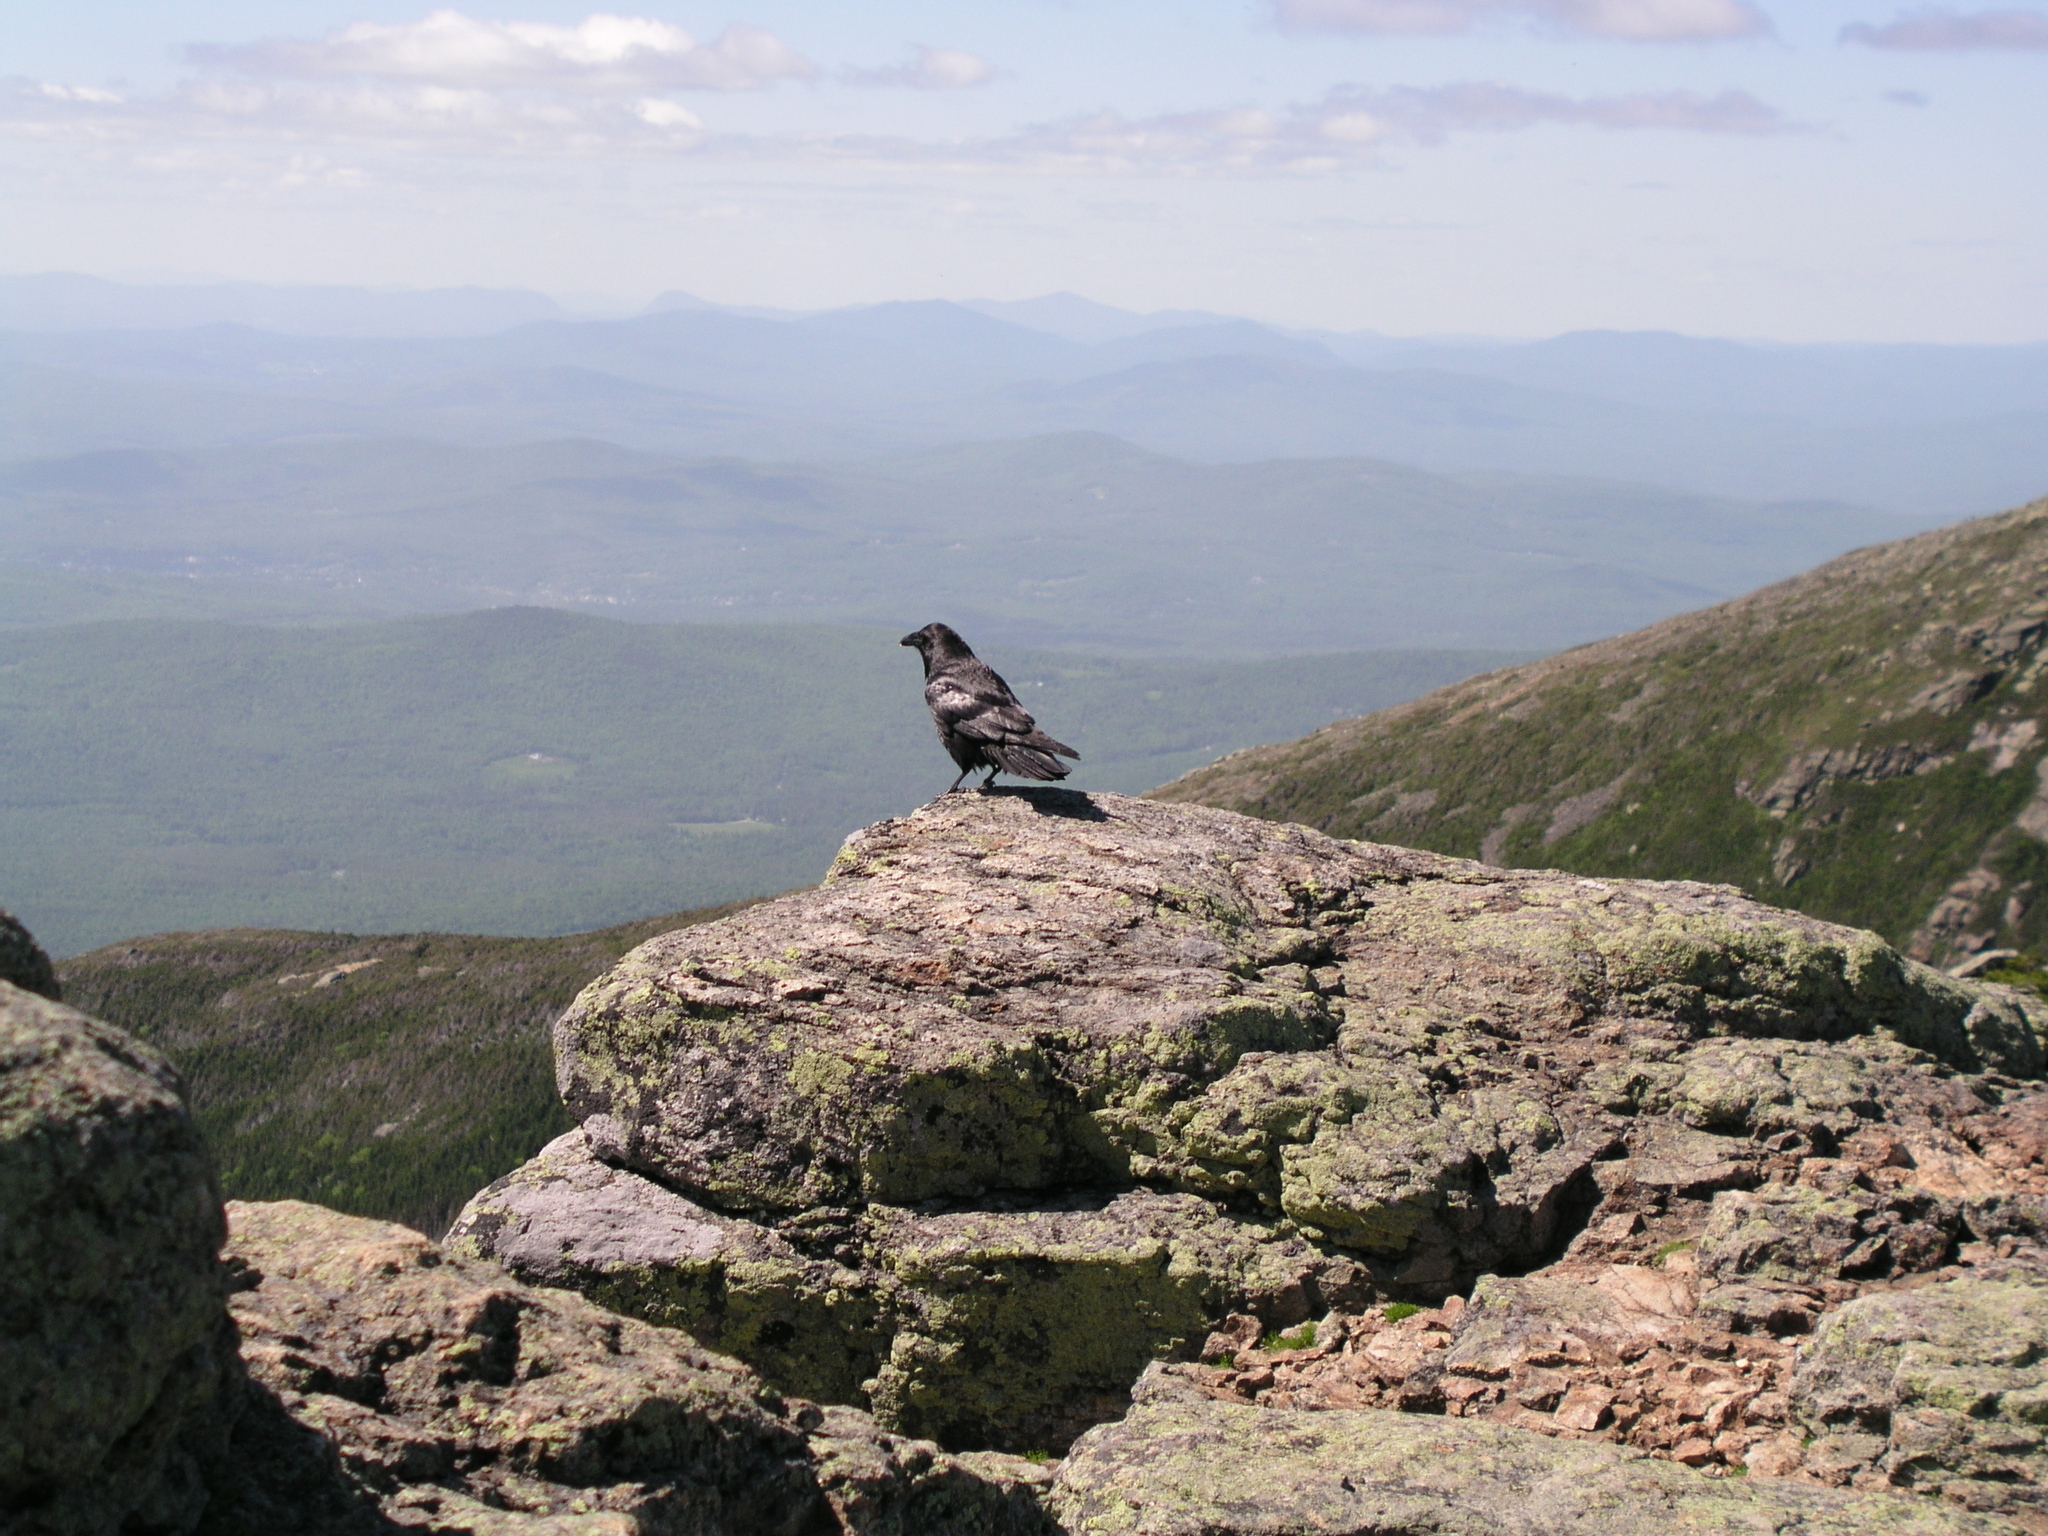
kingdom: Animalia
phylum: Chordata
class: Aves
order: Passeriformes
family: Corvidae
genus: Corvus
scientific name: Corvus corax
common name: Common raven
